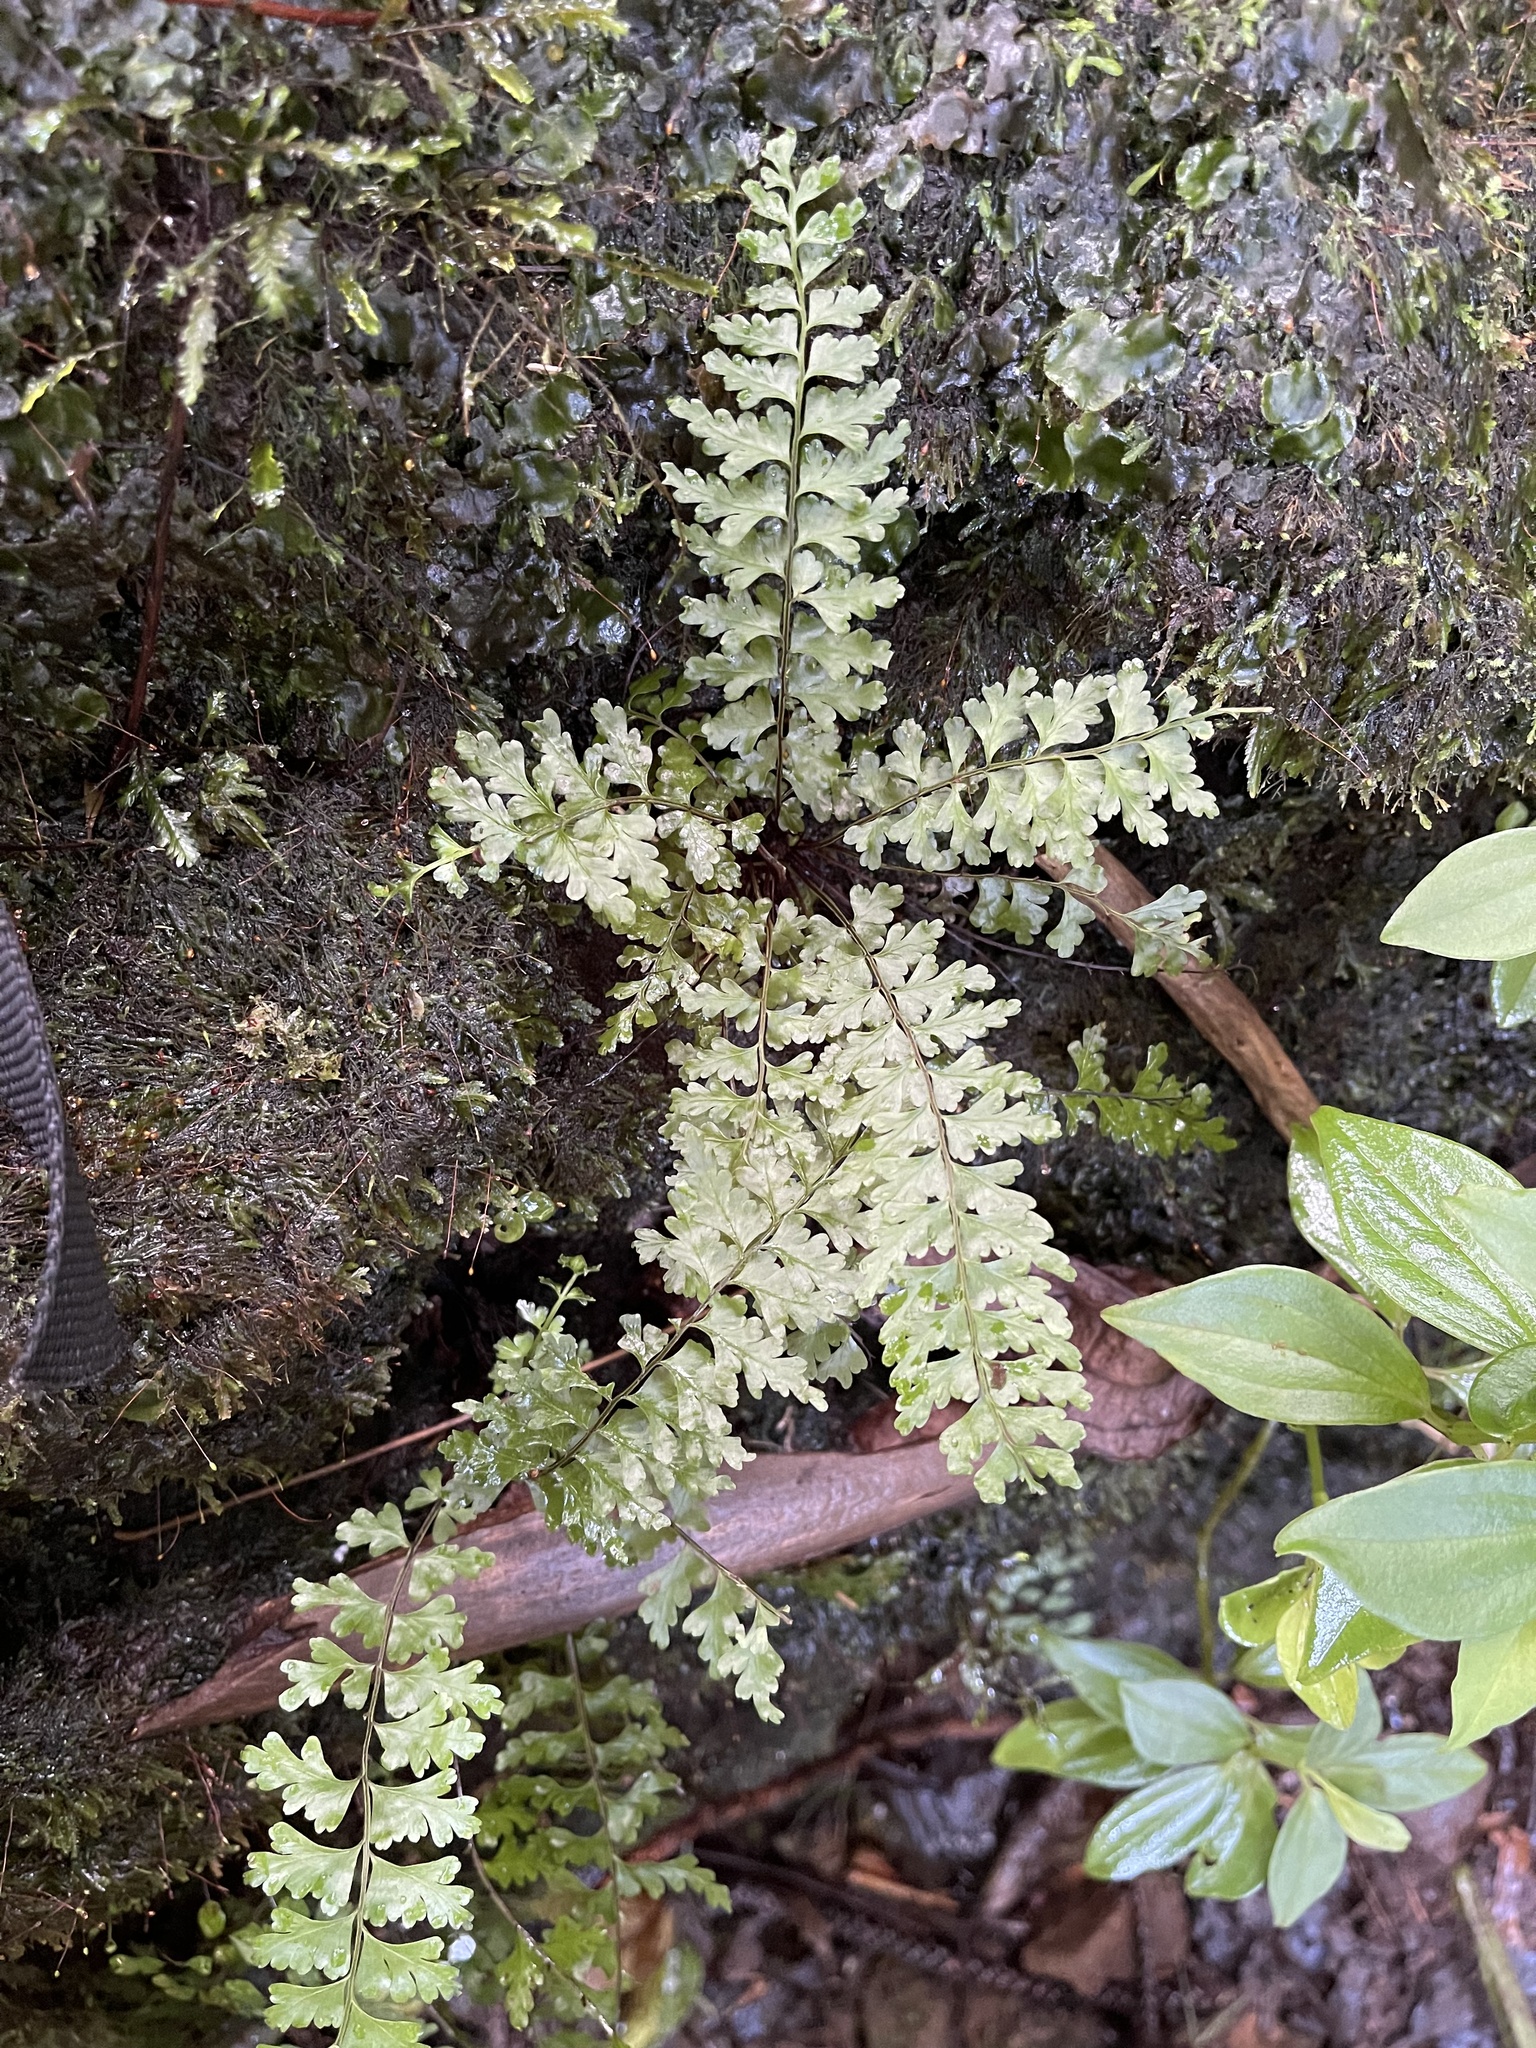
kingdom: Plantae
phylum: Tracheophyta
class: Polypodiopsida
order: Polypodiales
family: Aspleniaceae
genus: Asplenium
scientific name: Asplenium macraei
